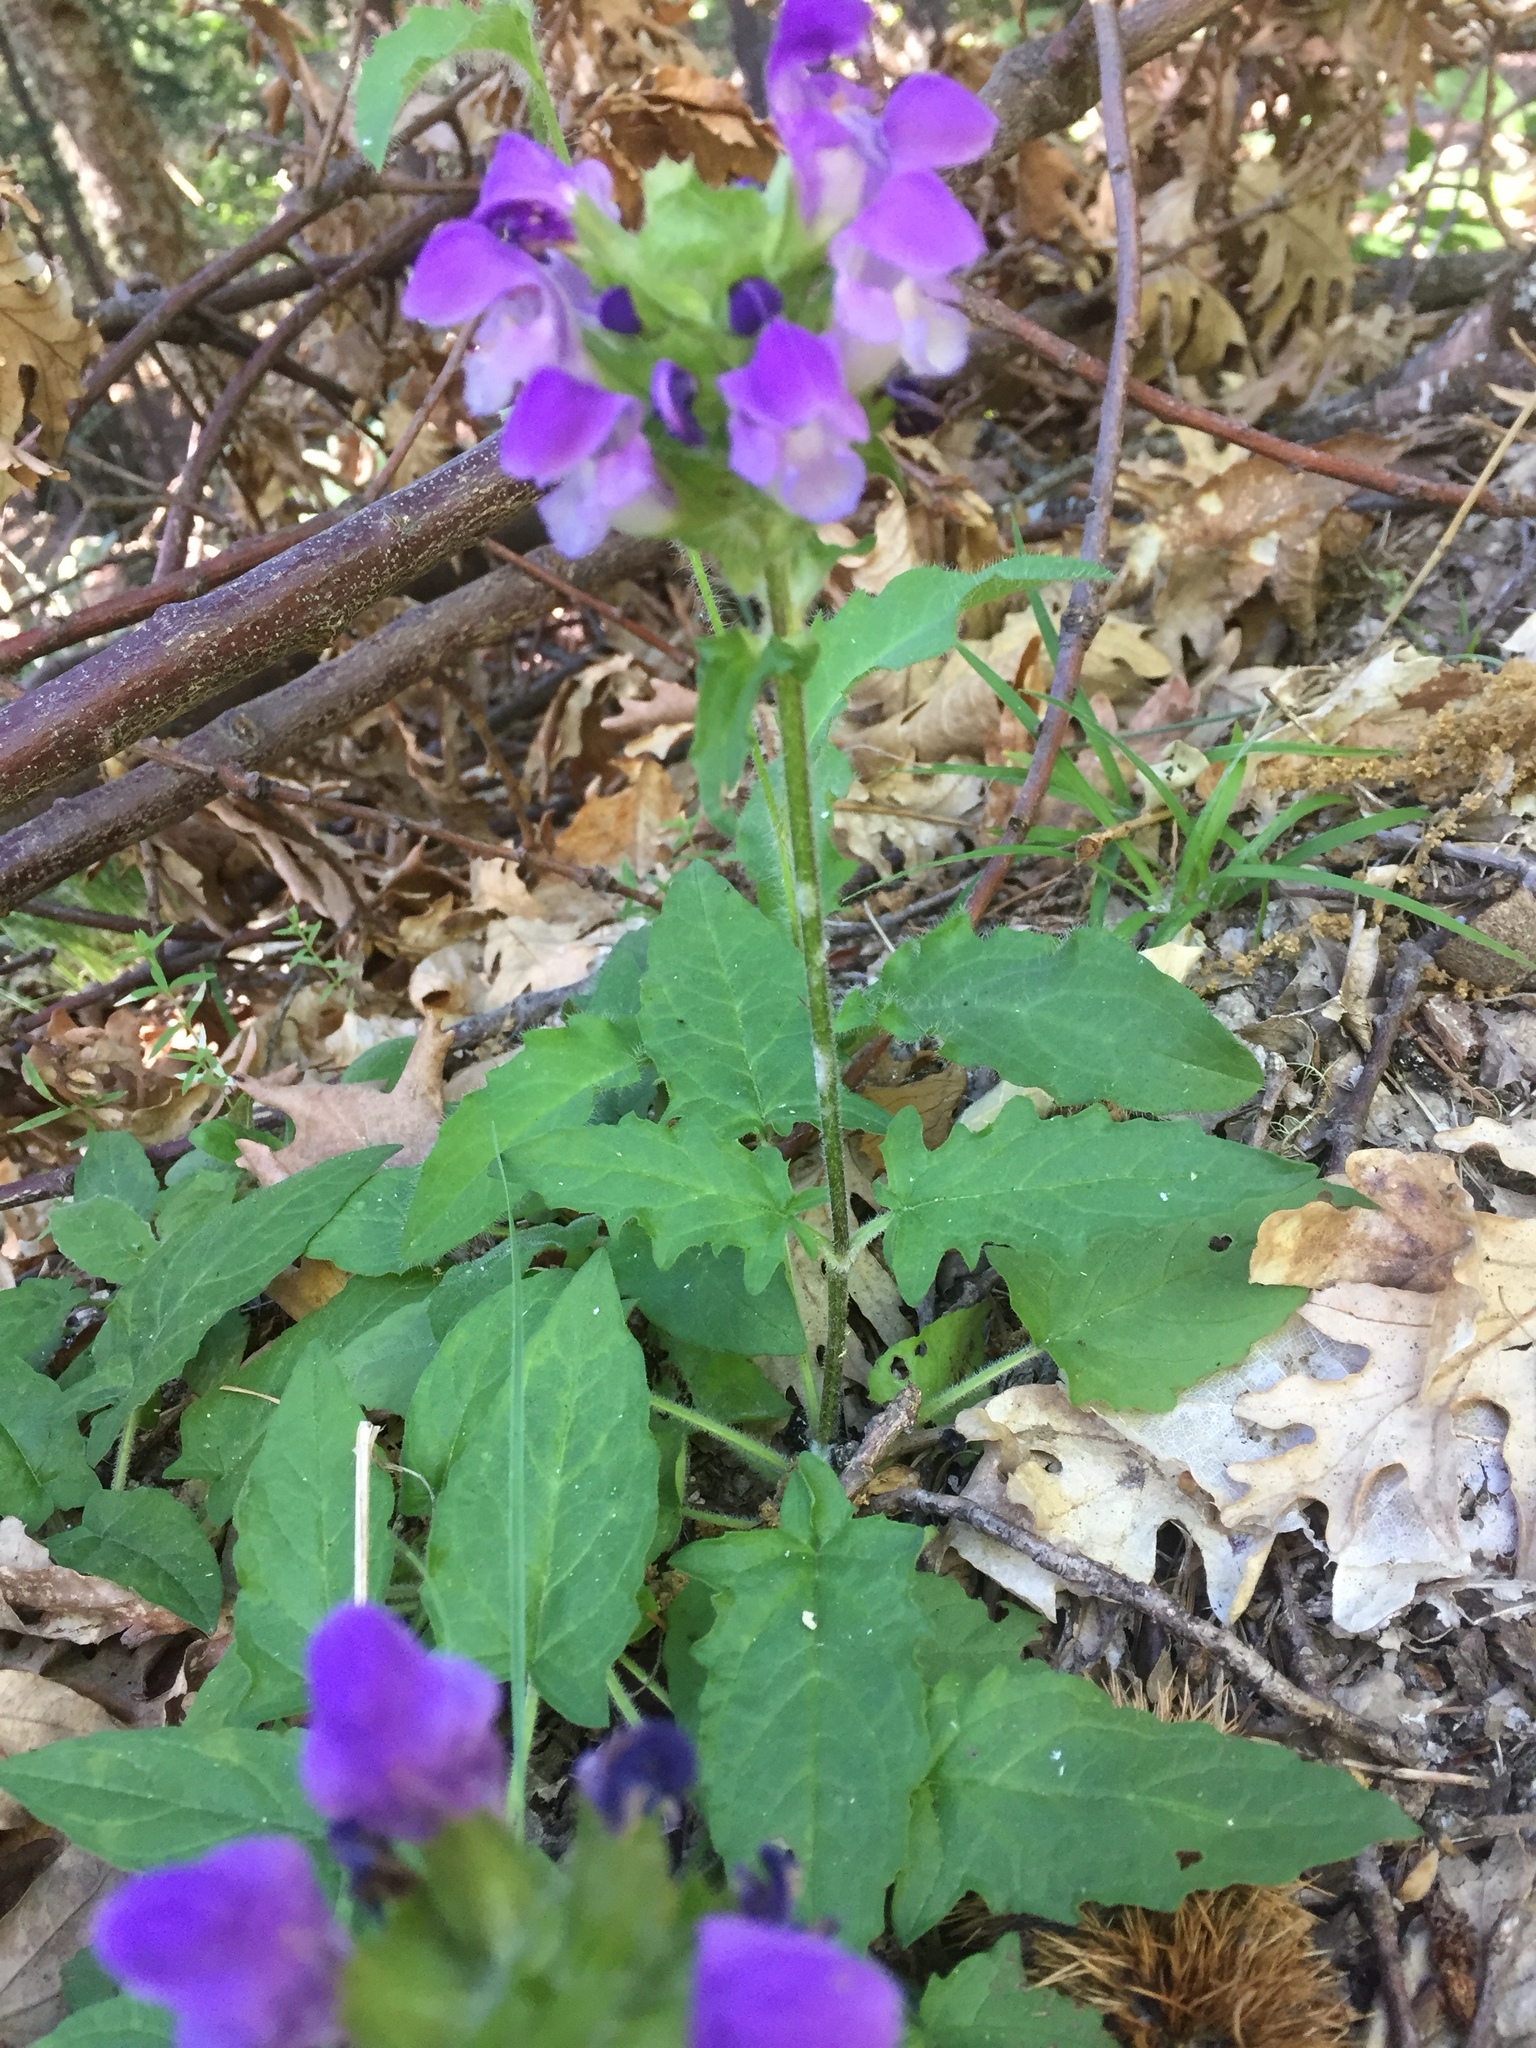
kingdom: Plantae
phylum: Tracheophyta
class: Magnoliopsida
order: Lamiales
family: Lamiaceae
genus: Prunella
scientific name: Prunella grandiflora
